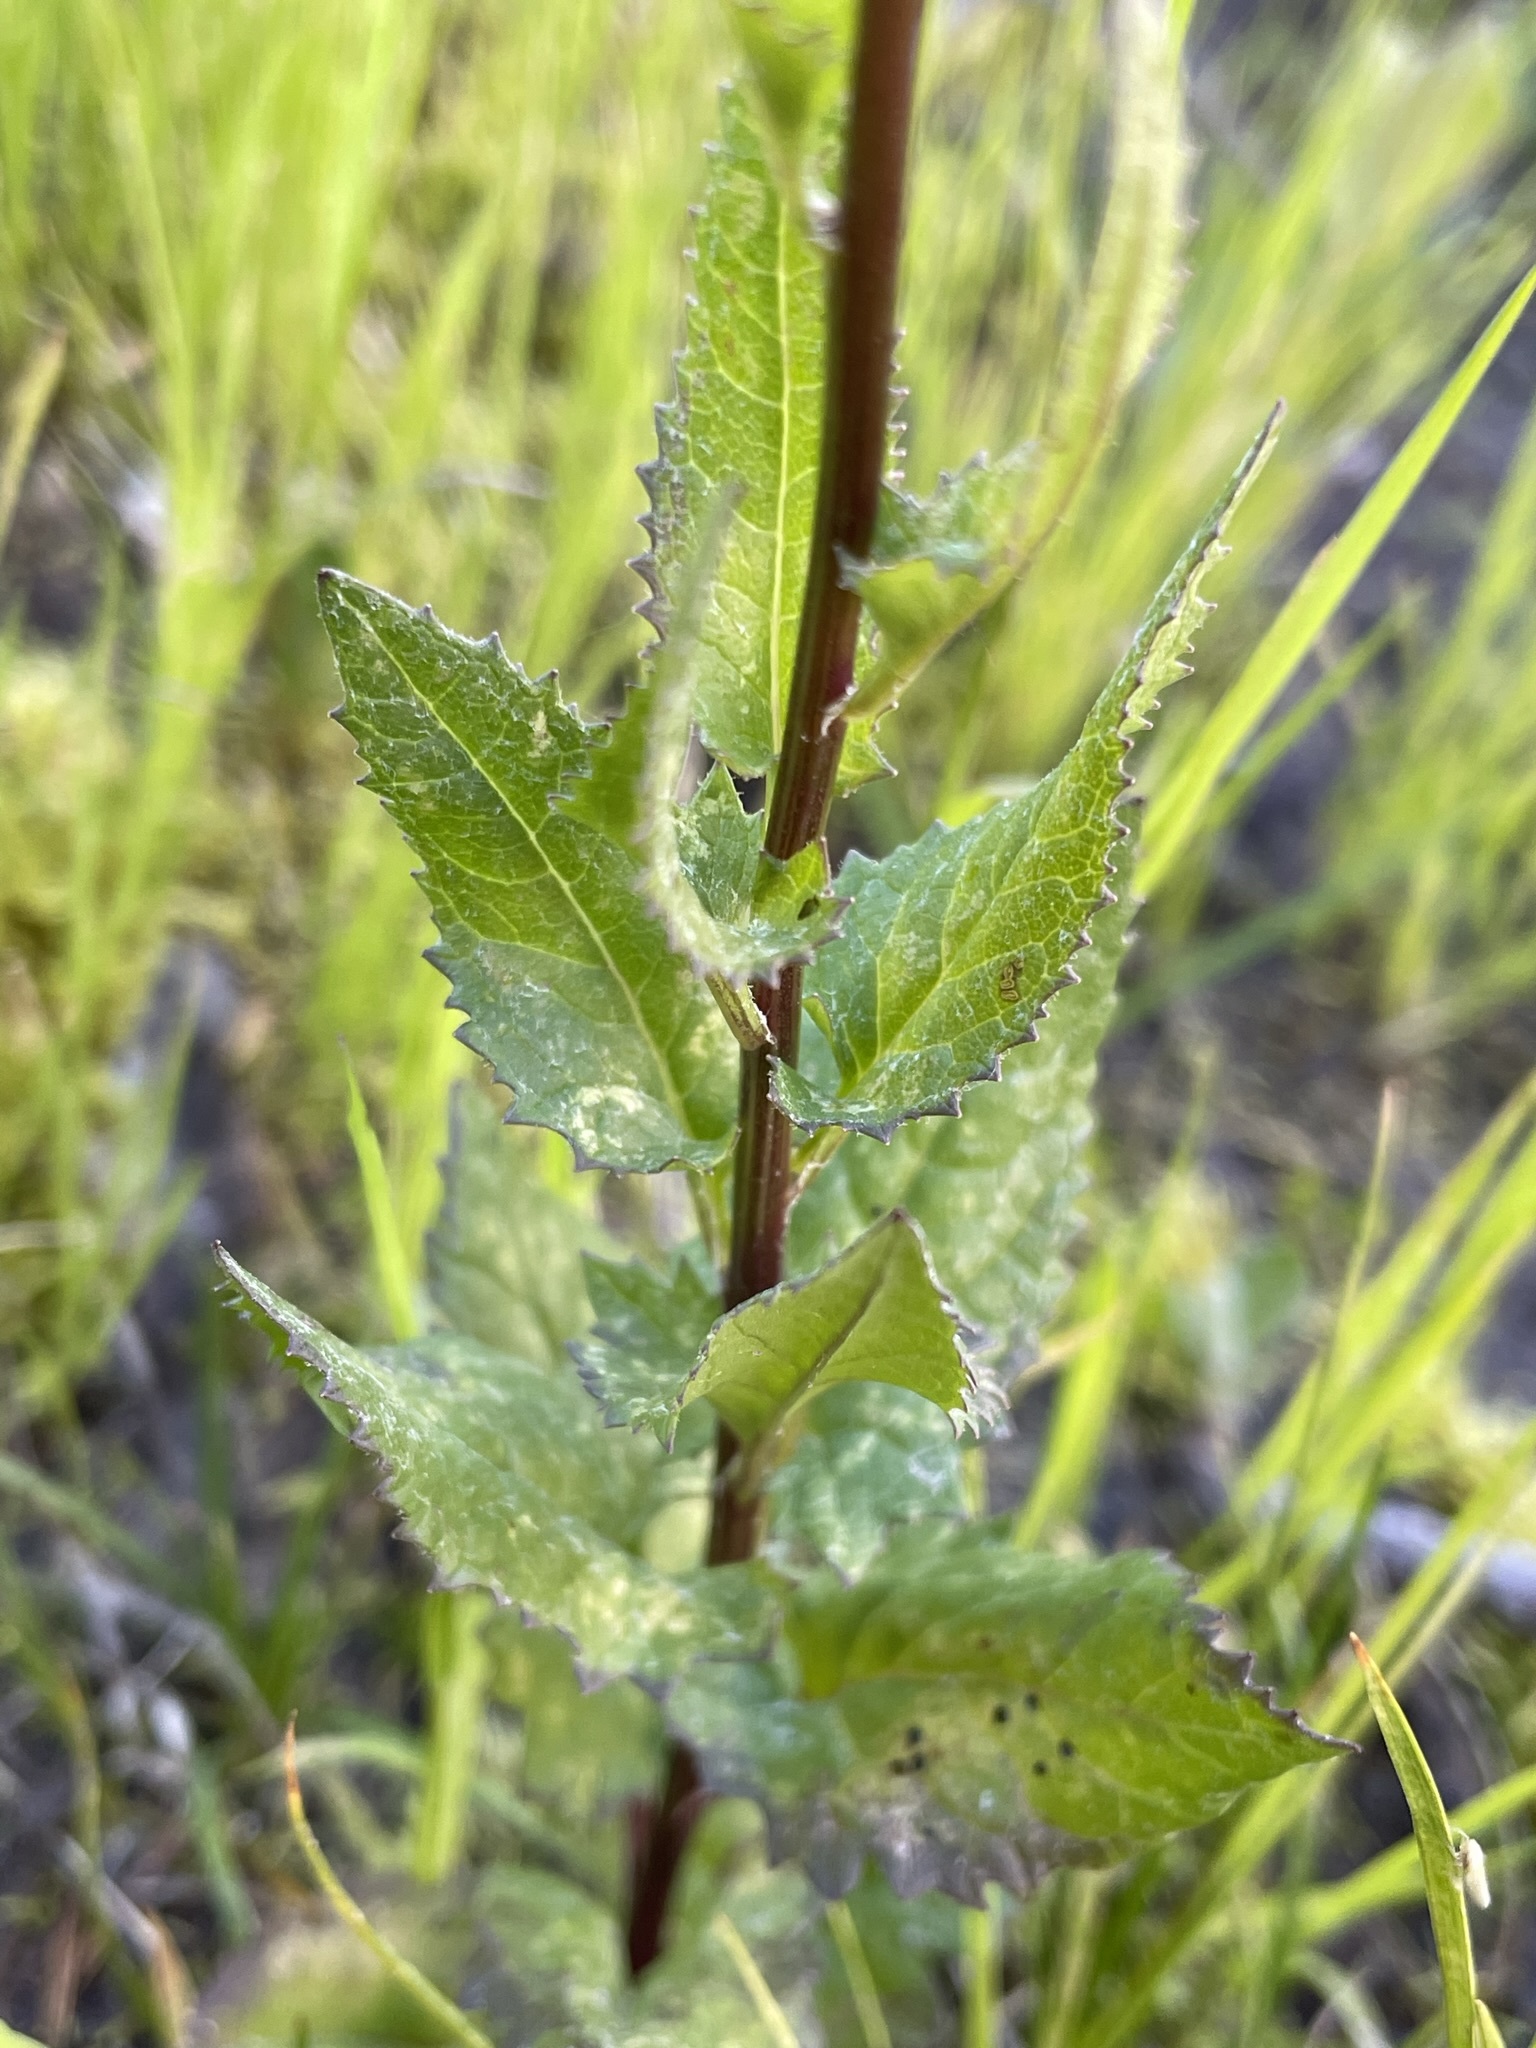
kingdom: Plantae
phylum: Tracheophyta
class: Magnoliopsida
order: Asterales
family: Asteraceae
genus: Senecio
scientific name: Senecio triangularis
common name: Arrowleaf butterweed
